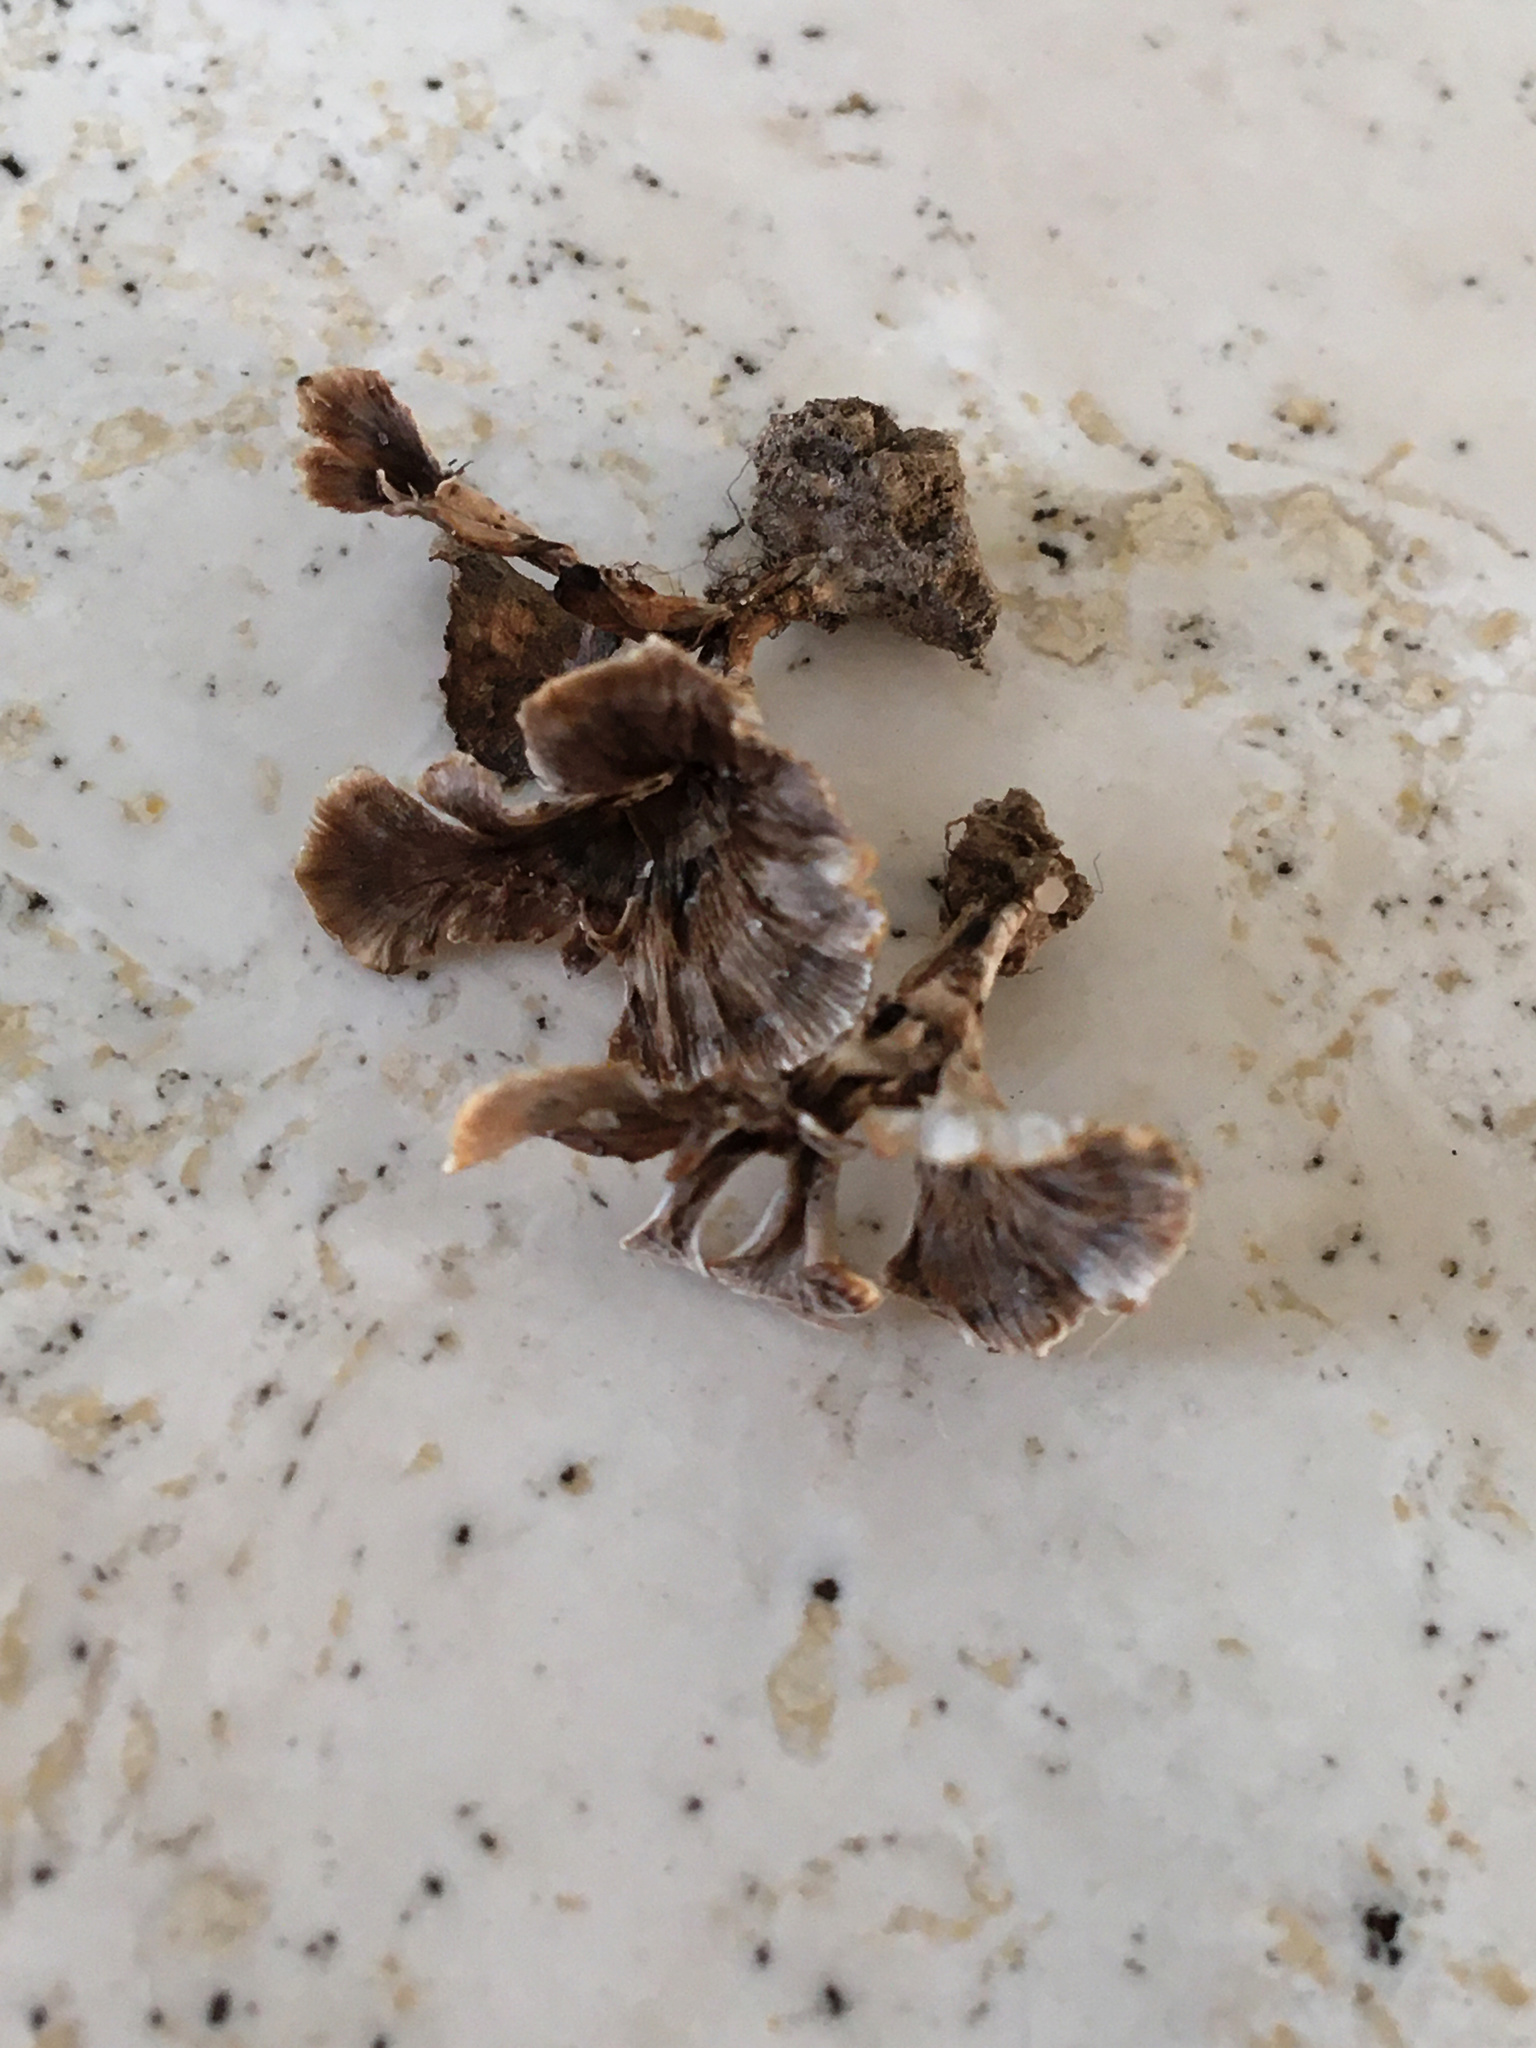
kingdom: Fungi
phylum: Basidiomycota
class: Agaricomycetes
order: Stereopsidales
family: Stereopsidaceae
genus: Stereopsis
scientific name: Stereopsis hiscens
